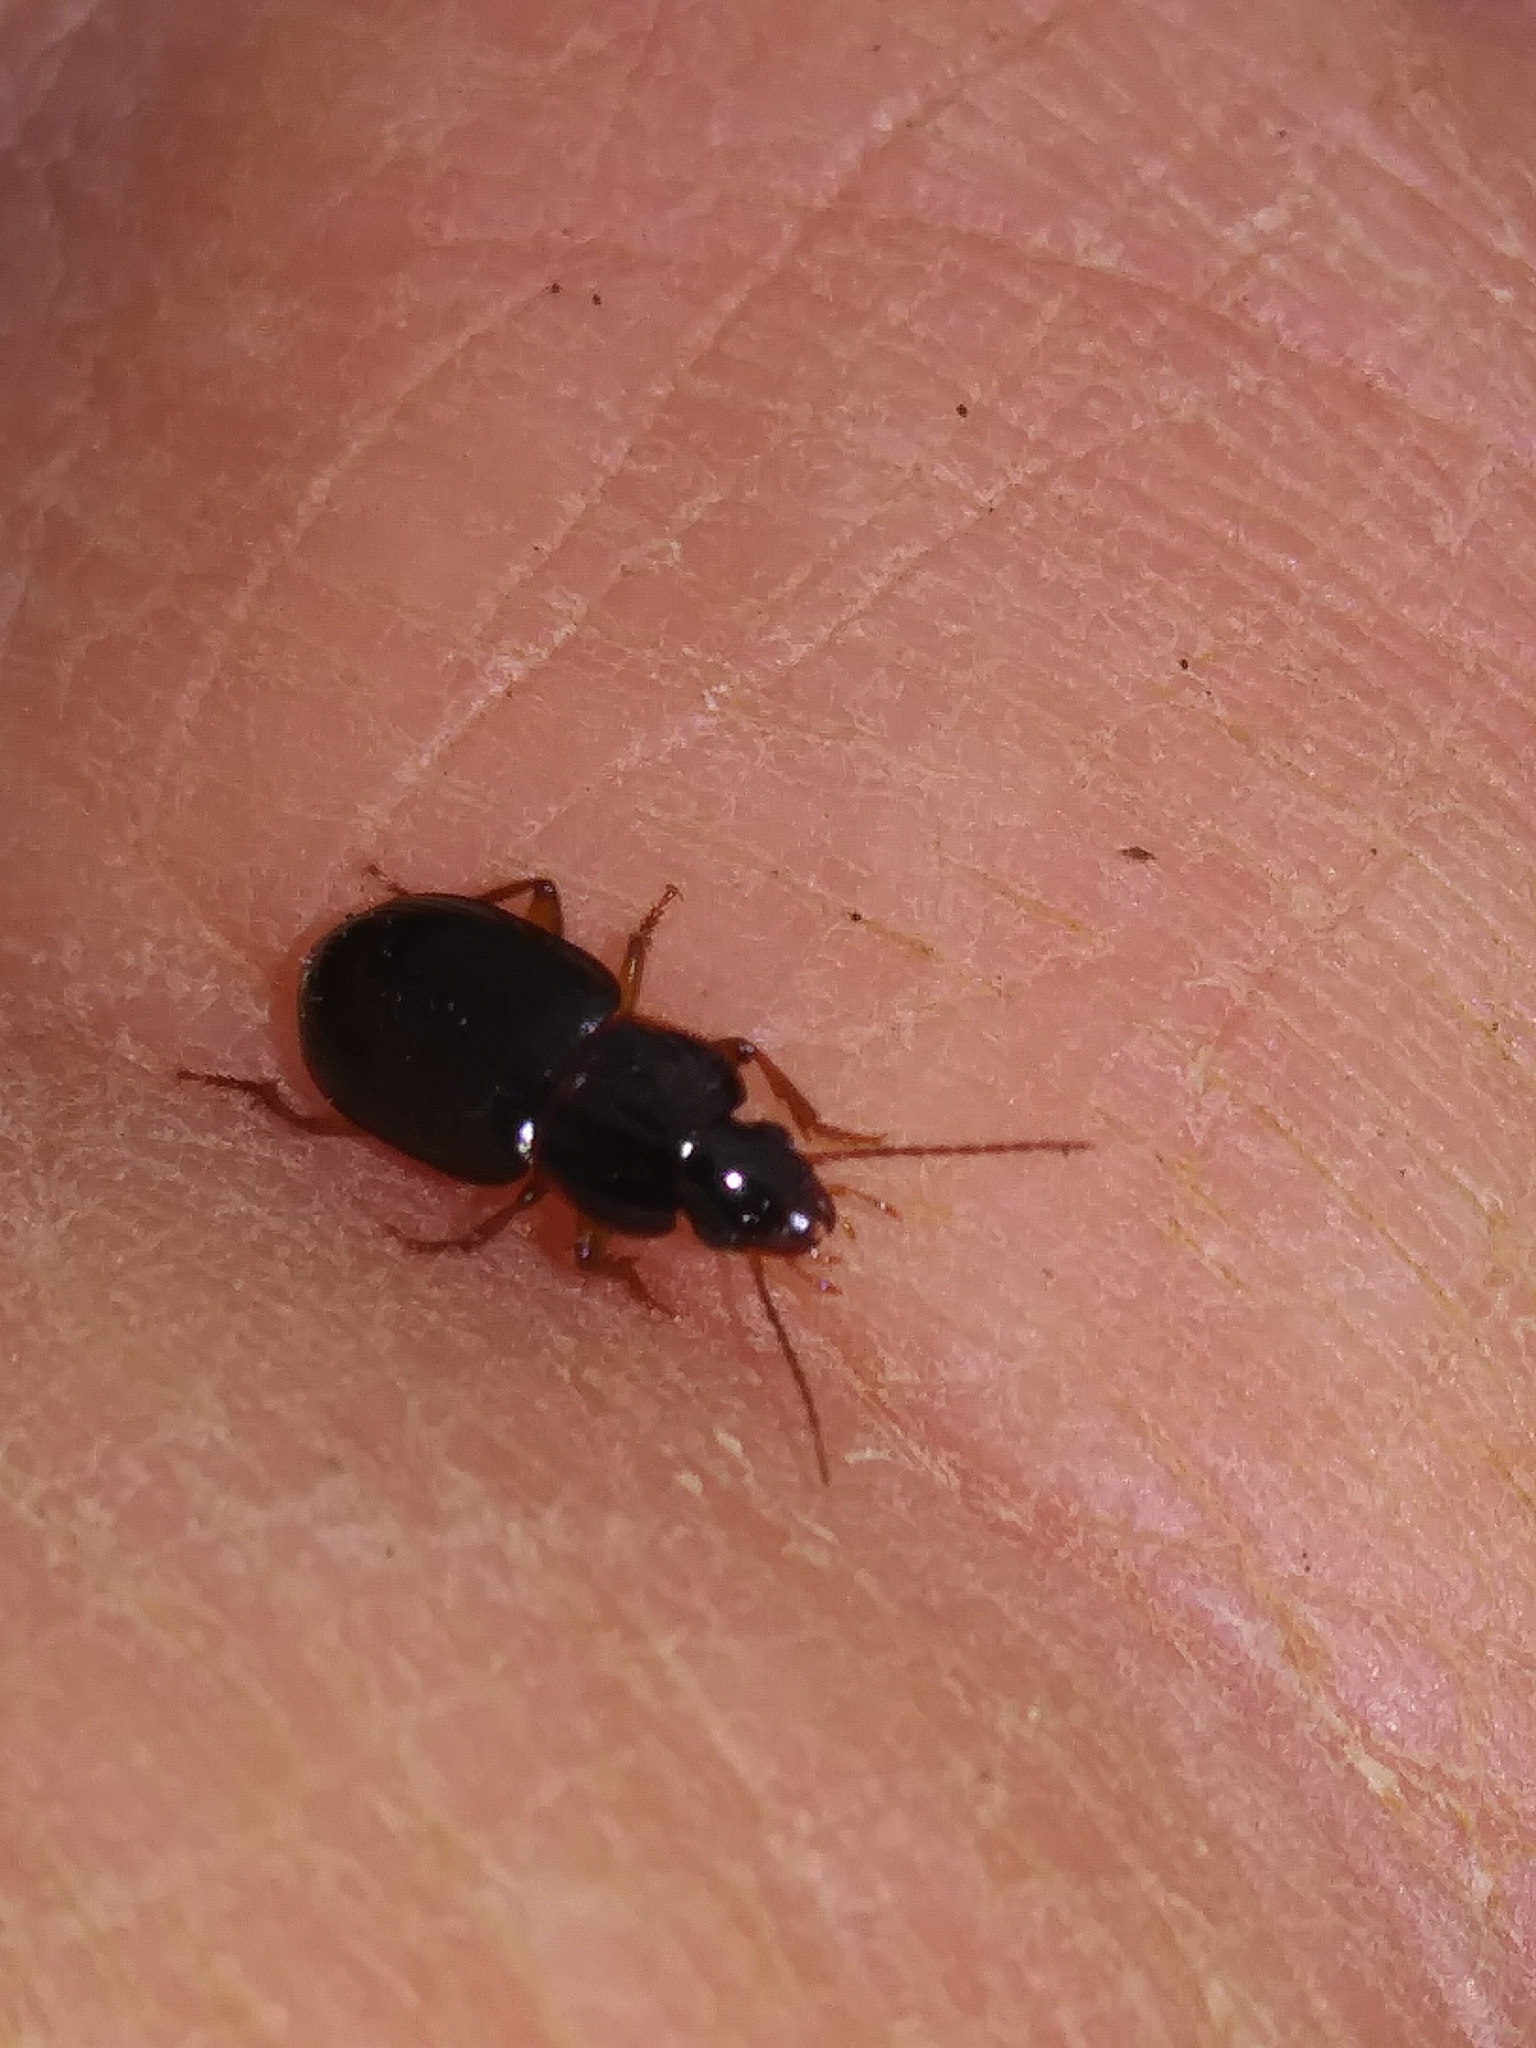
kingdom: Animalia
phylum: Arthropoda
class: Insecta
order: Coleoptera
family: Carabidae
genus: Trichotichnus
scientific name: Trichotichnus autumnalis
